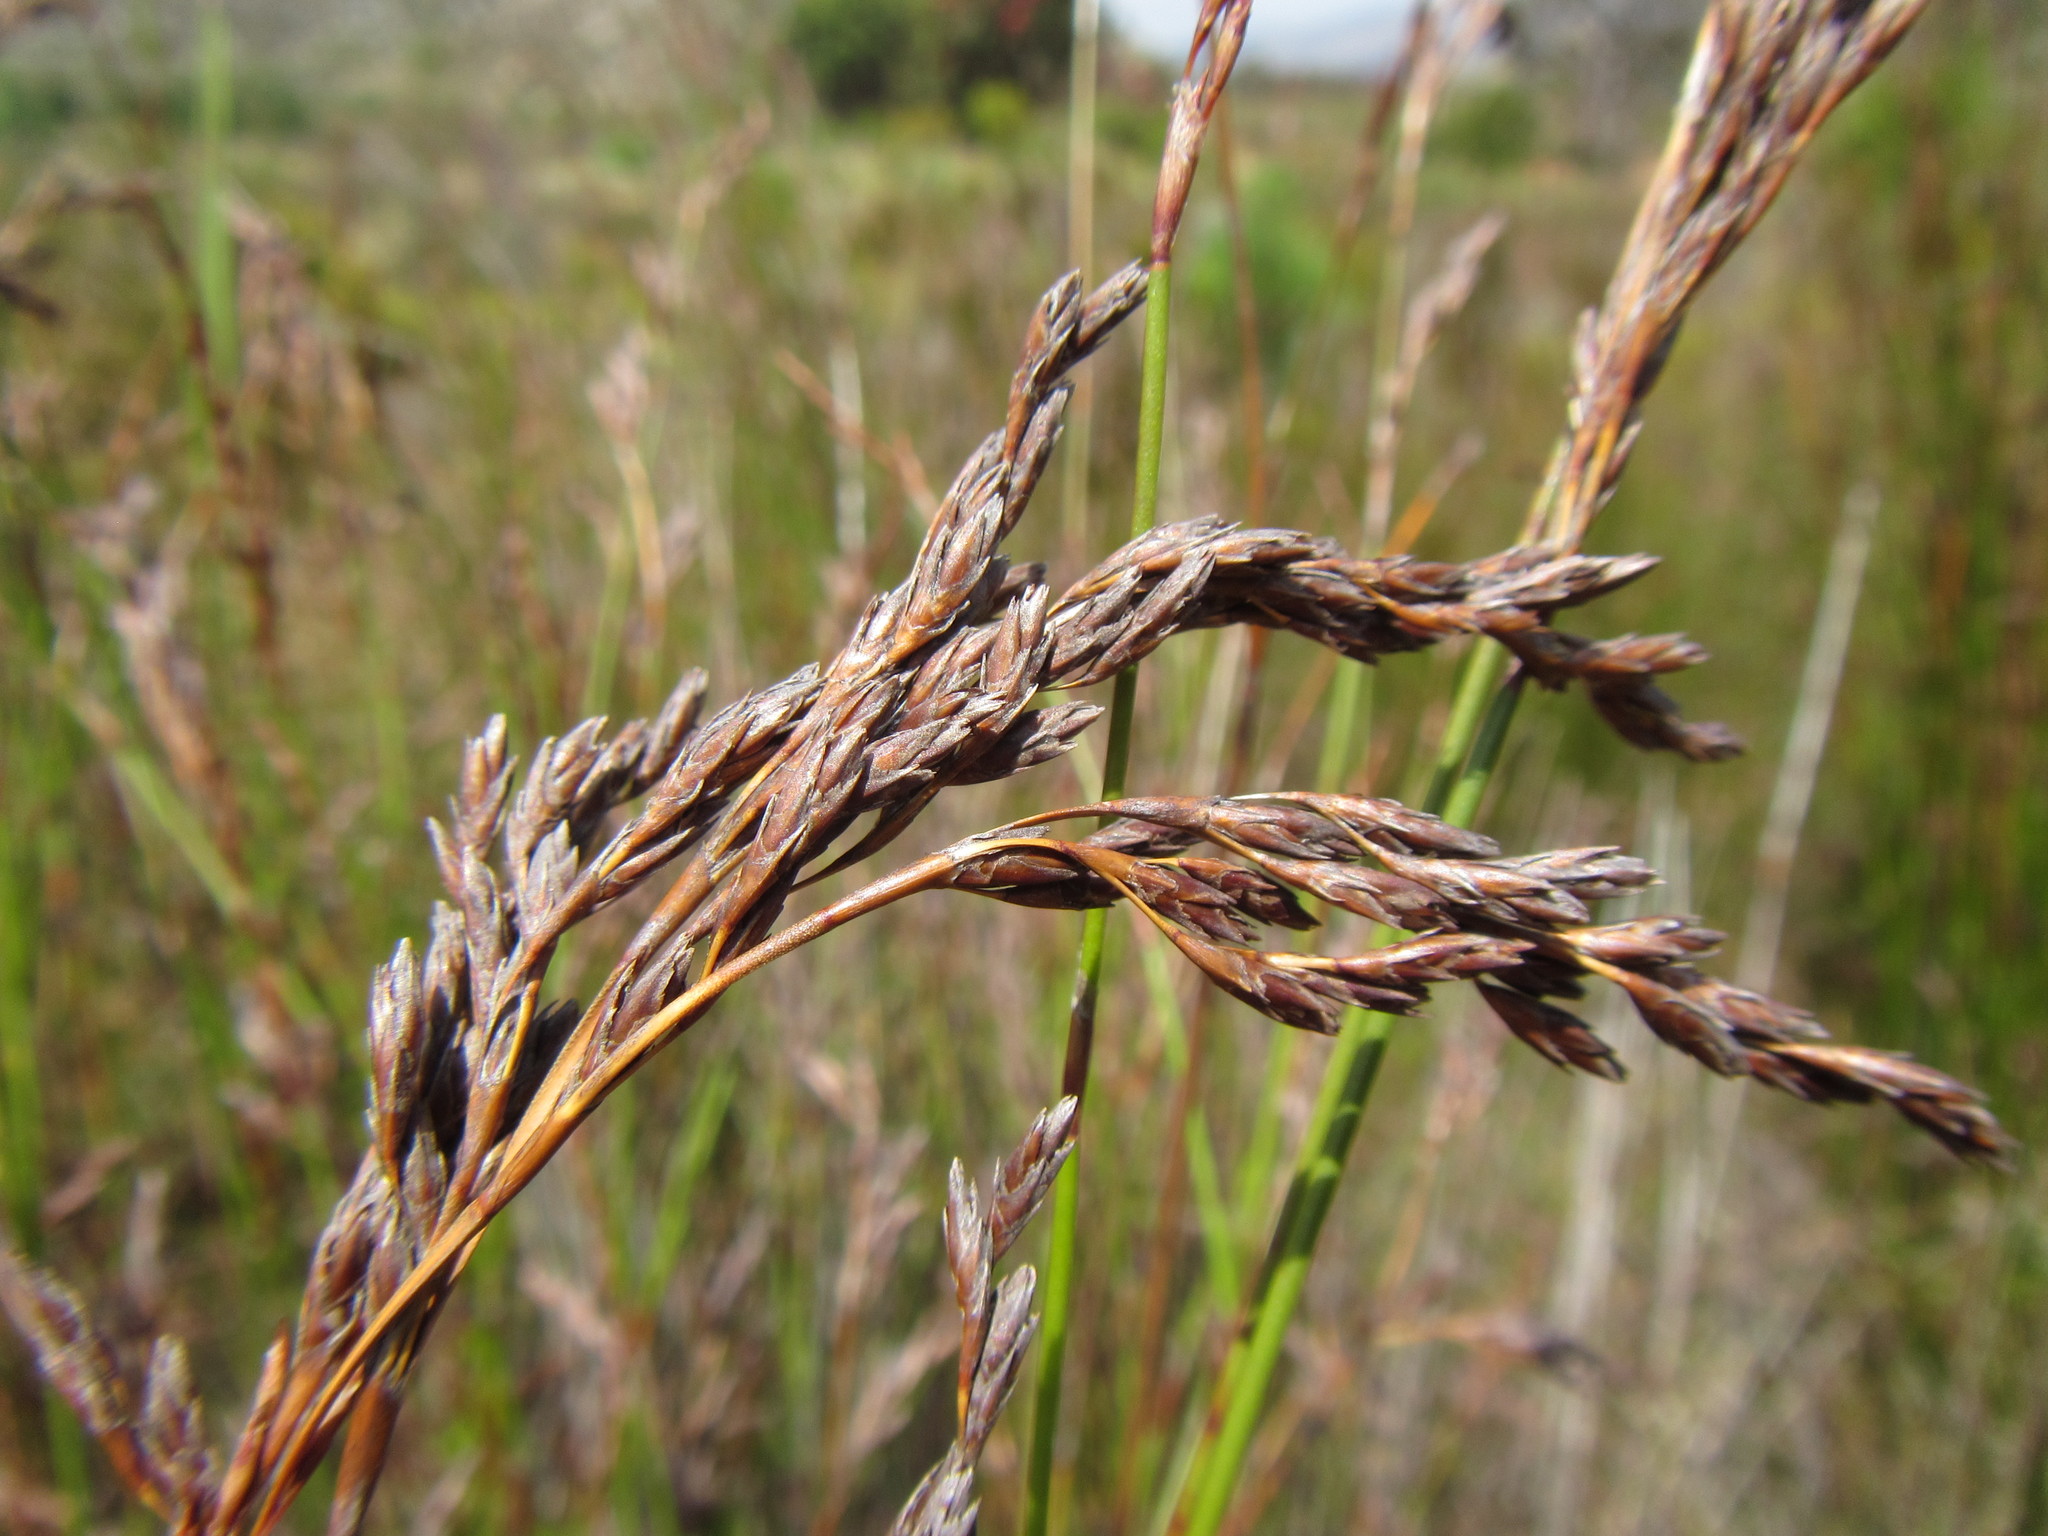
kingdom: Plantae
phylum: Tracheophyta
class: Liliopsida
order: Poales
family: Restionaceae
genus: Restio
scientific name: Restio brachiatus
